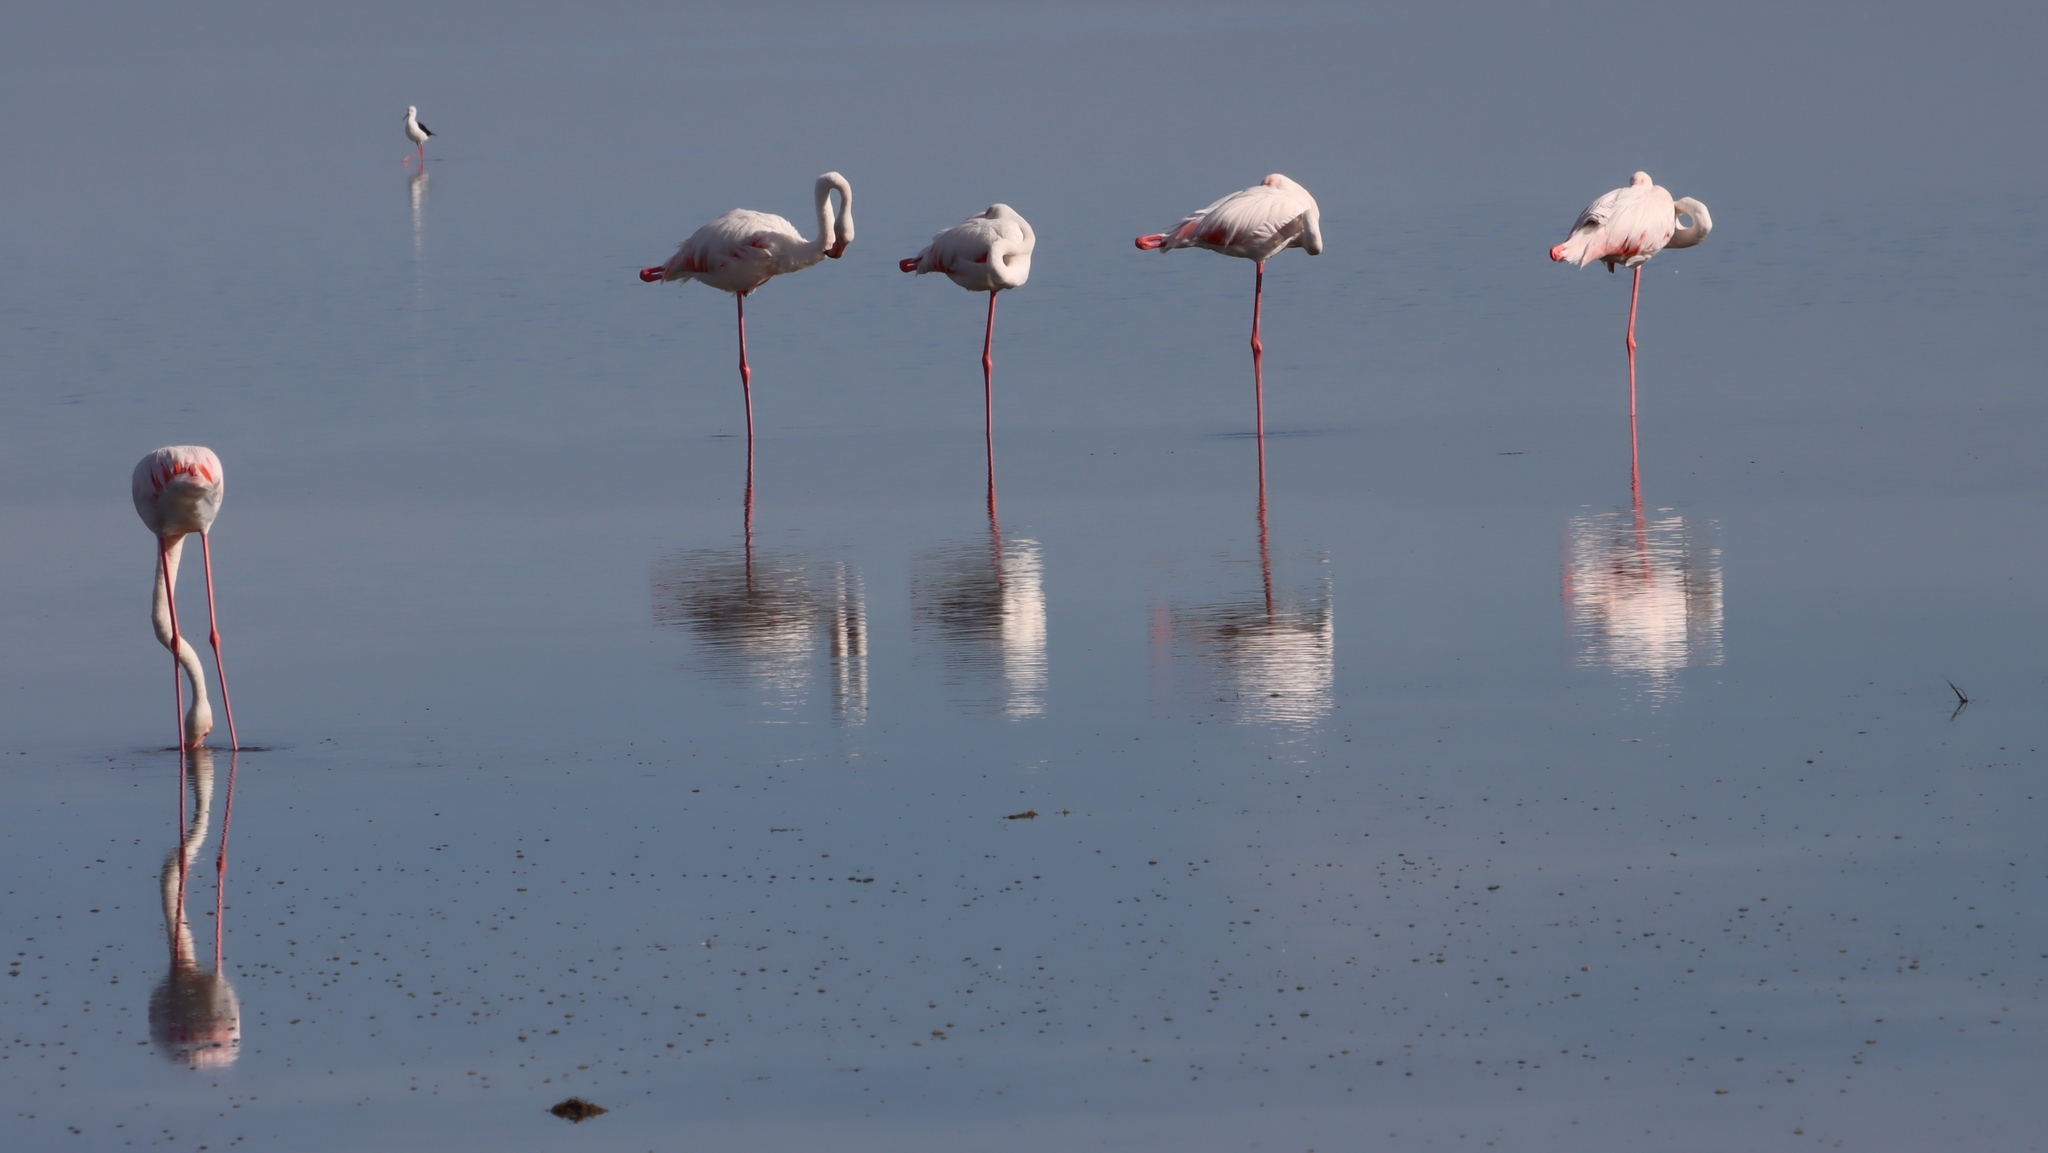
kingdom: Animalia
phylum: Chordata
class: Aves
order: Phoenicopteriformes
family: Phoenicopteridae
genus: Phoenicopterus
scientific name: Phoenicopterus roseus
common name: Greater flamingo
